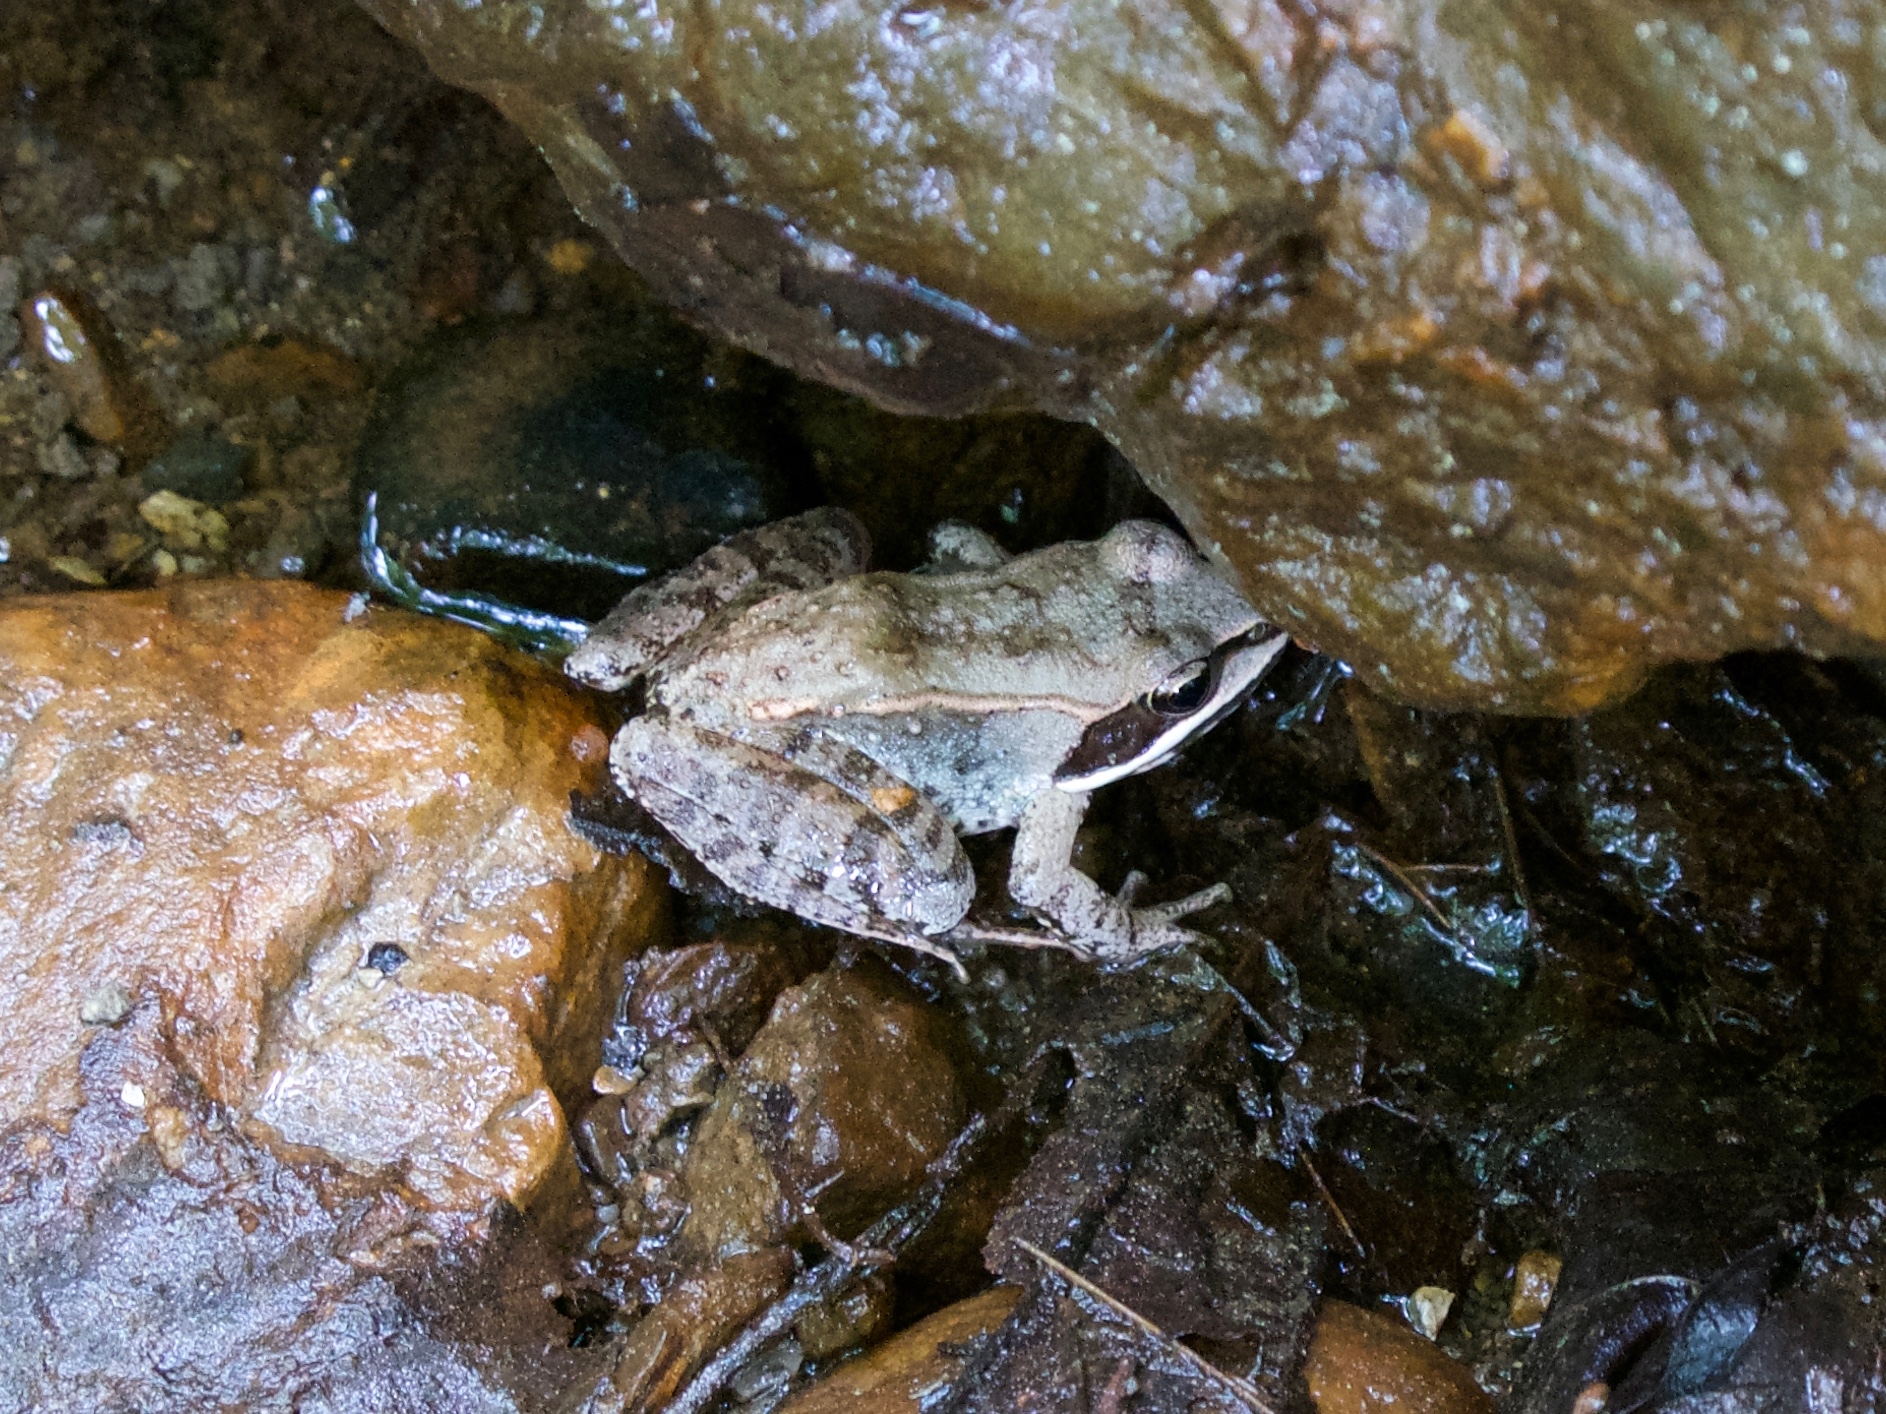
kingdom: Animalia
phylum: Chordata
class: Amphibia
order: Anura
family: Ranidae
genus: Lithobates
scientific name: Lithobates sylvaticus
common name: Wood frog
